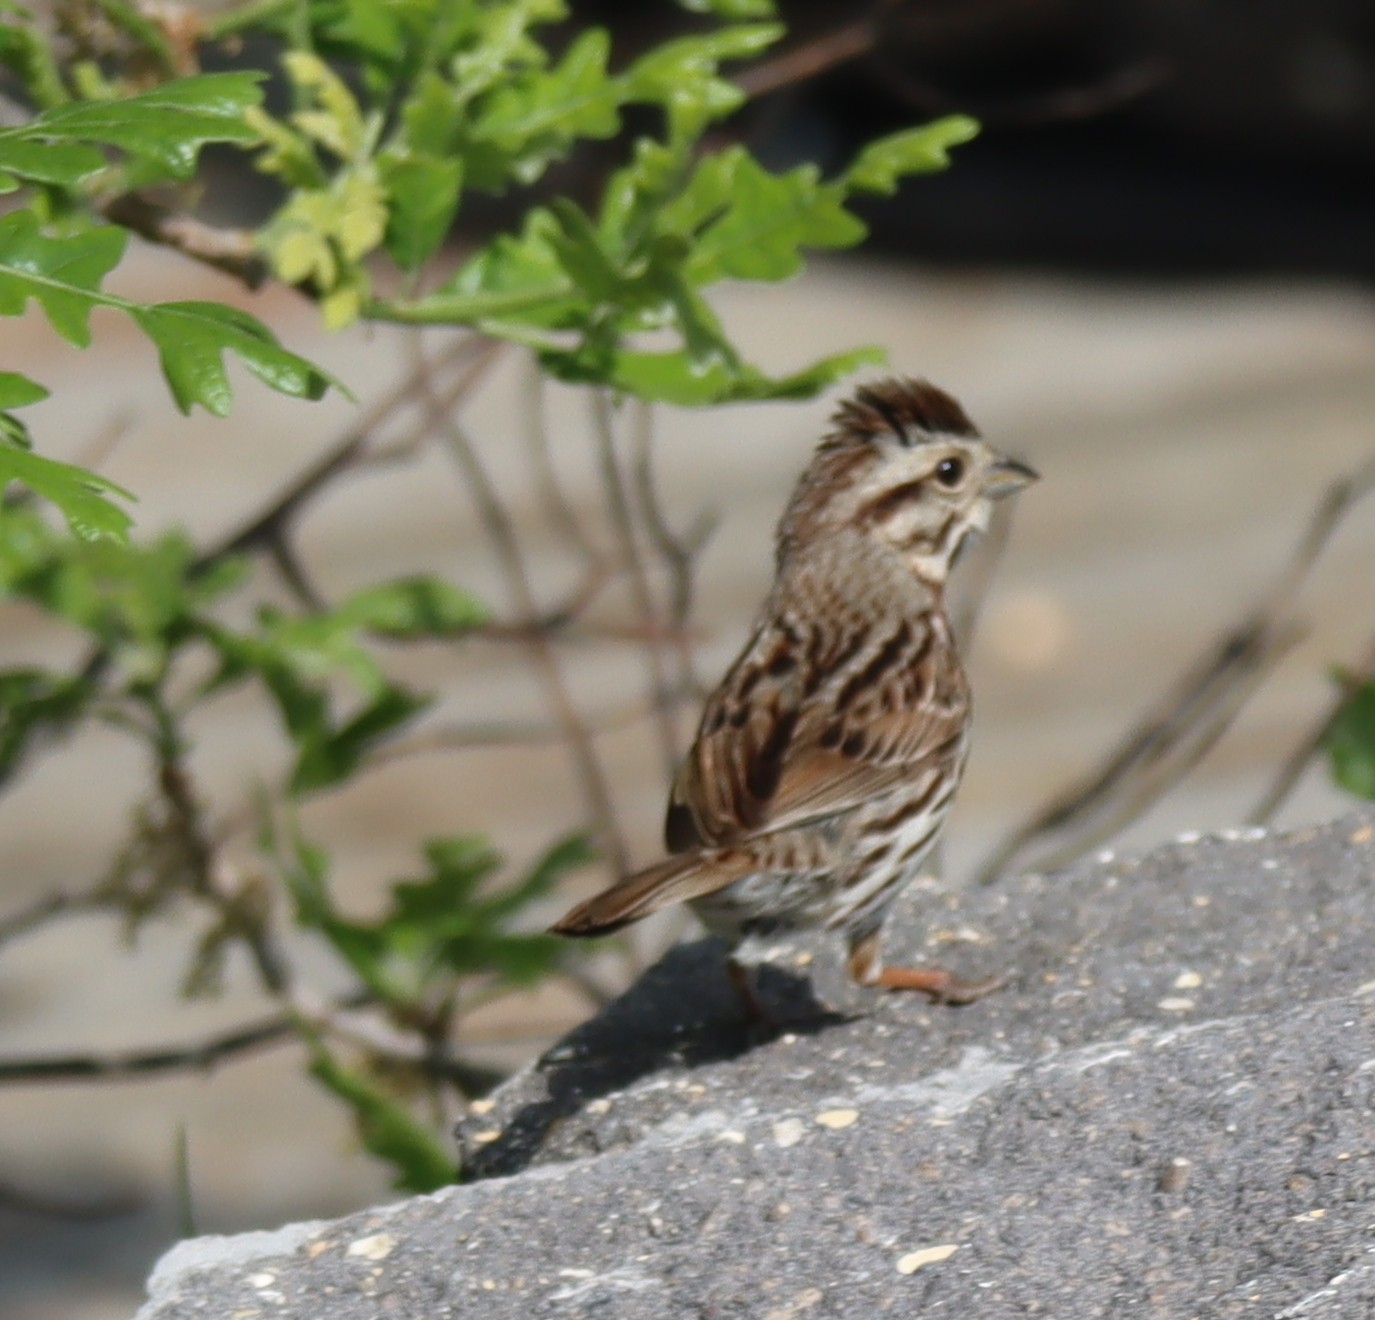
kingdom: Animalia
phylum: Chordata
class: Aves
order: Passeriformes
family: Passerellidae
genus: Melospiza
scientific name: Melospiza melodia
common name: Song sparrow
